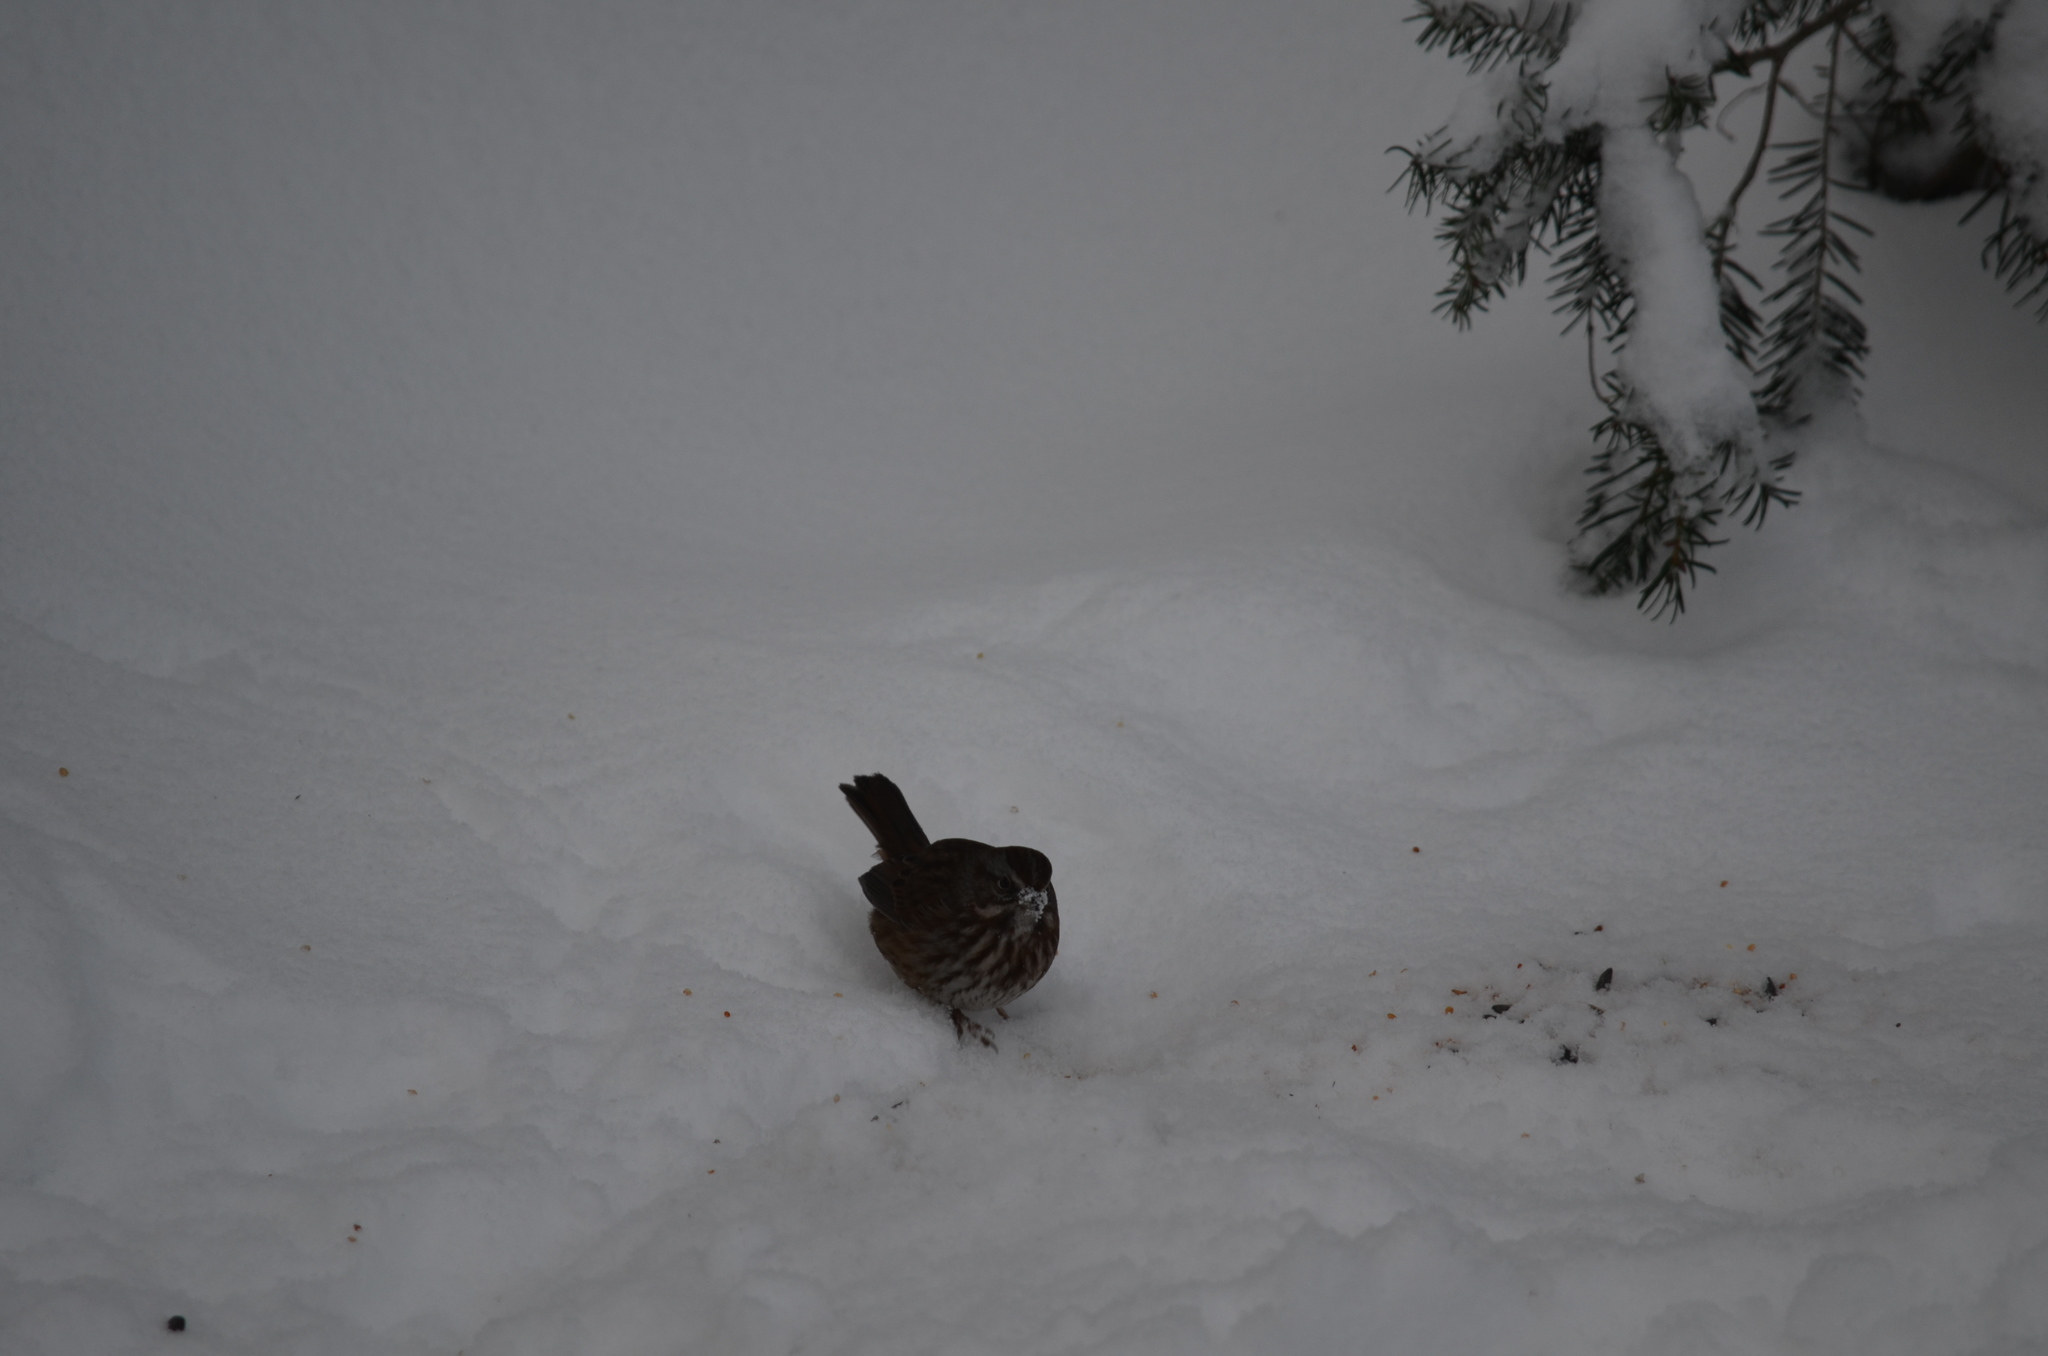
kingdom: Animalia
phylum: Chordata
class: Aves
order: Passeriformes
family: Passerellidae
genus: Melospiza
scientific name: Melospiza melodia
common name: Song sparrow
